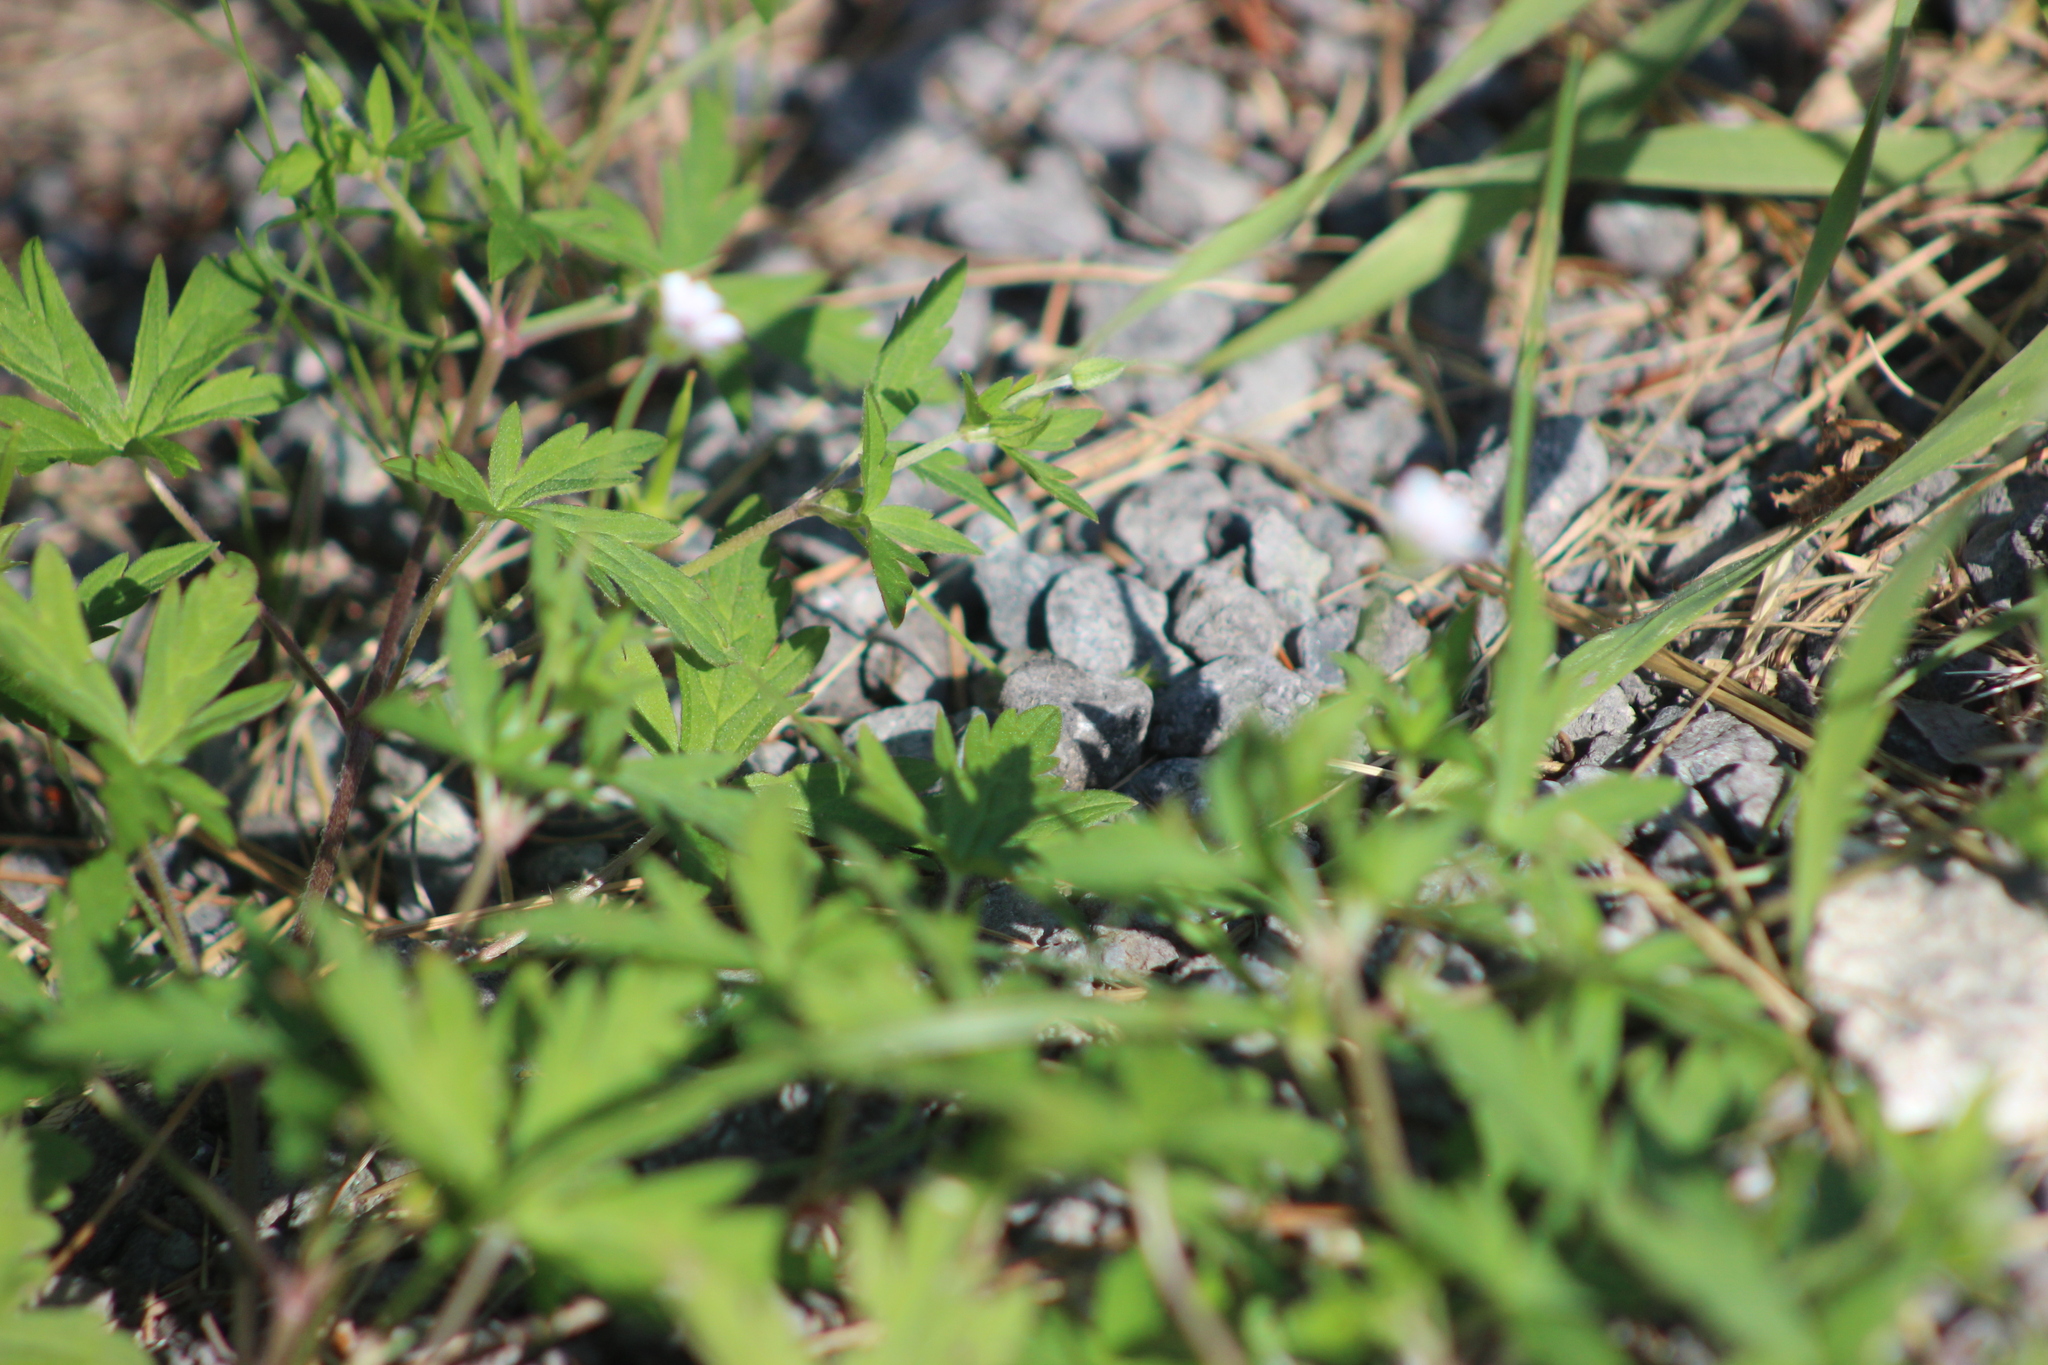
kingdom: Plantae
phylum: Tracheophyta
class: Magnoliopsida
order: Geraniales
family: Geraniaceae
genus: Geranium
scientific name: Geranium sibiricum
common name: Siberian crane's-bill
